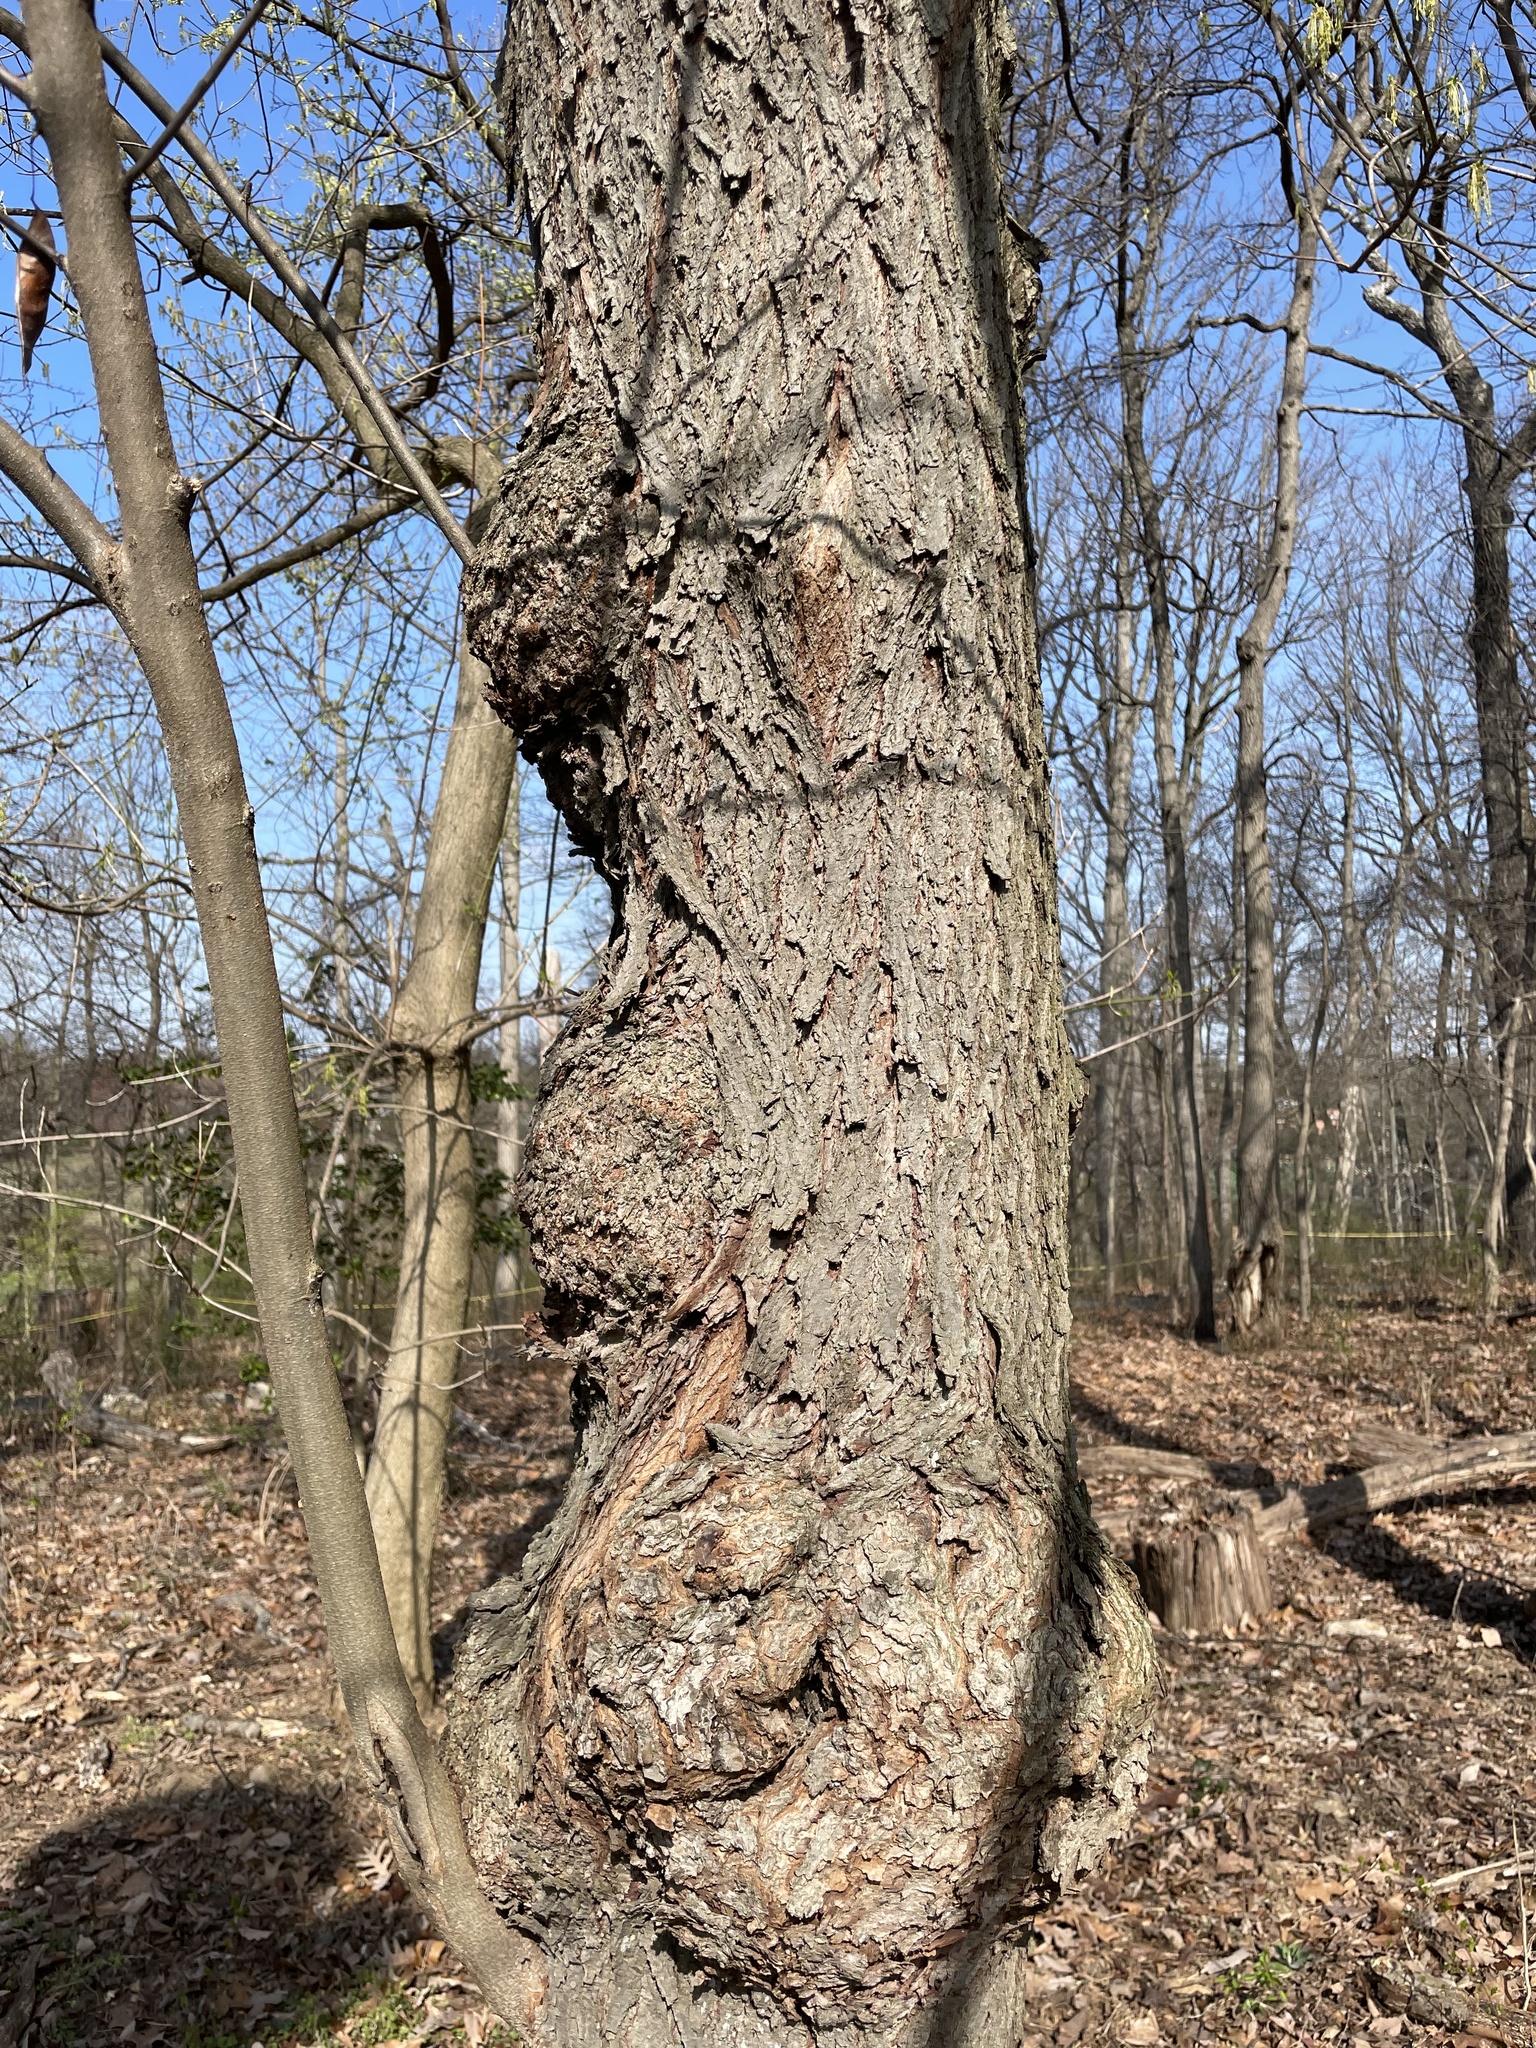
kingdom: Plantae
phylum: Tracheophyta
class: Magnoliopsida
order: Fabales
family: Fabaceae
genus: Cercis
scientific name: Cercis canadensis
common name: Eastern redbud
